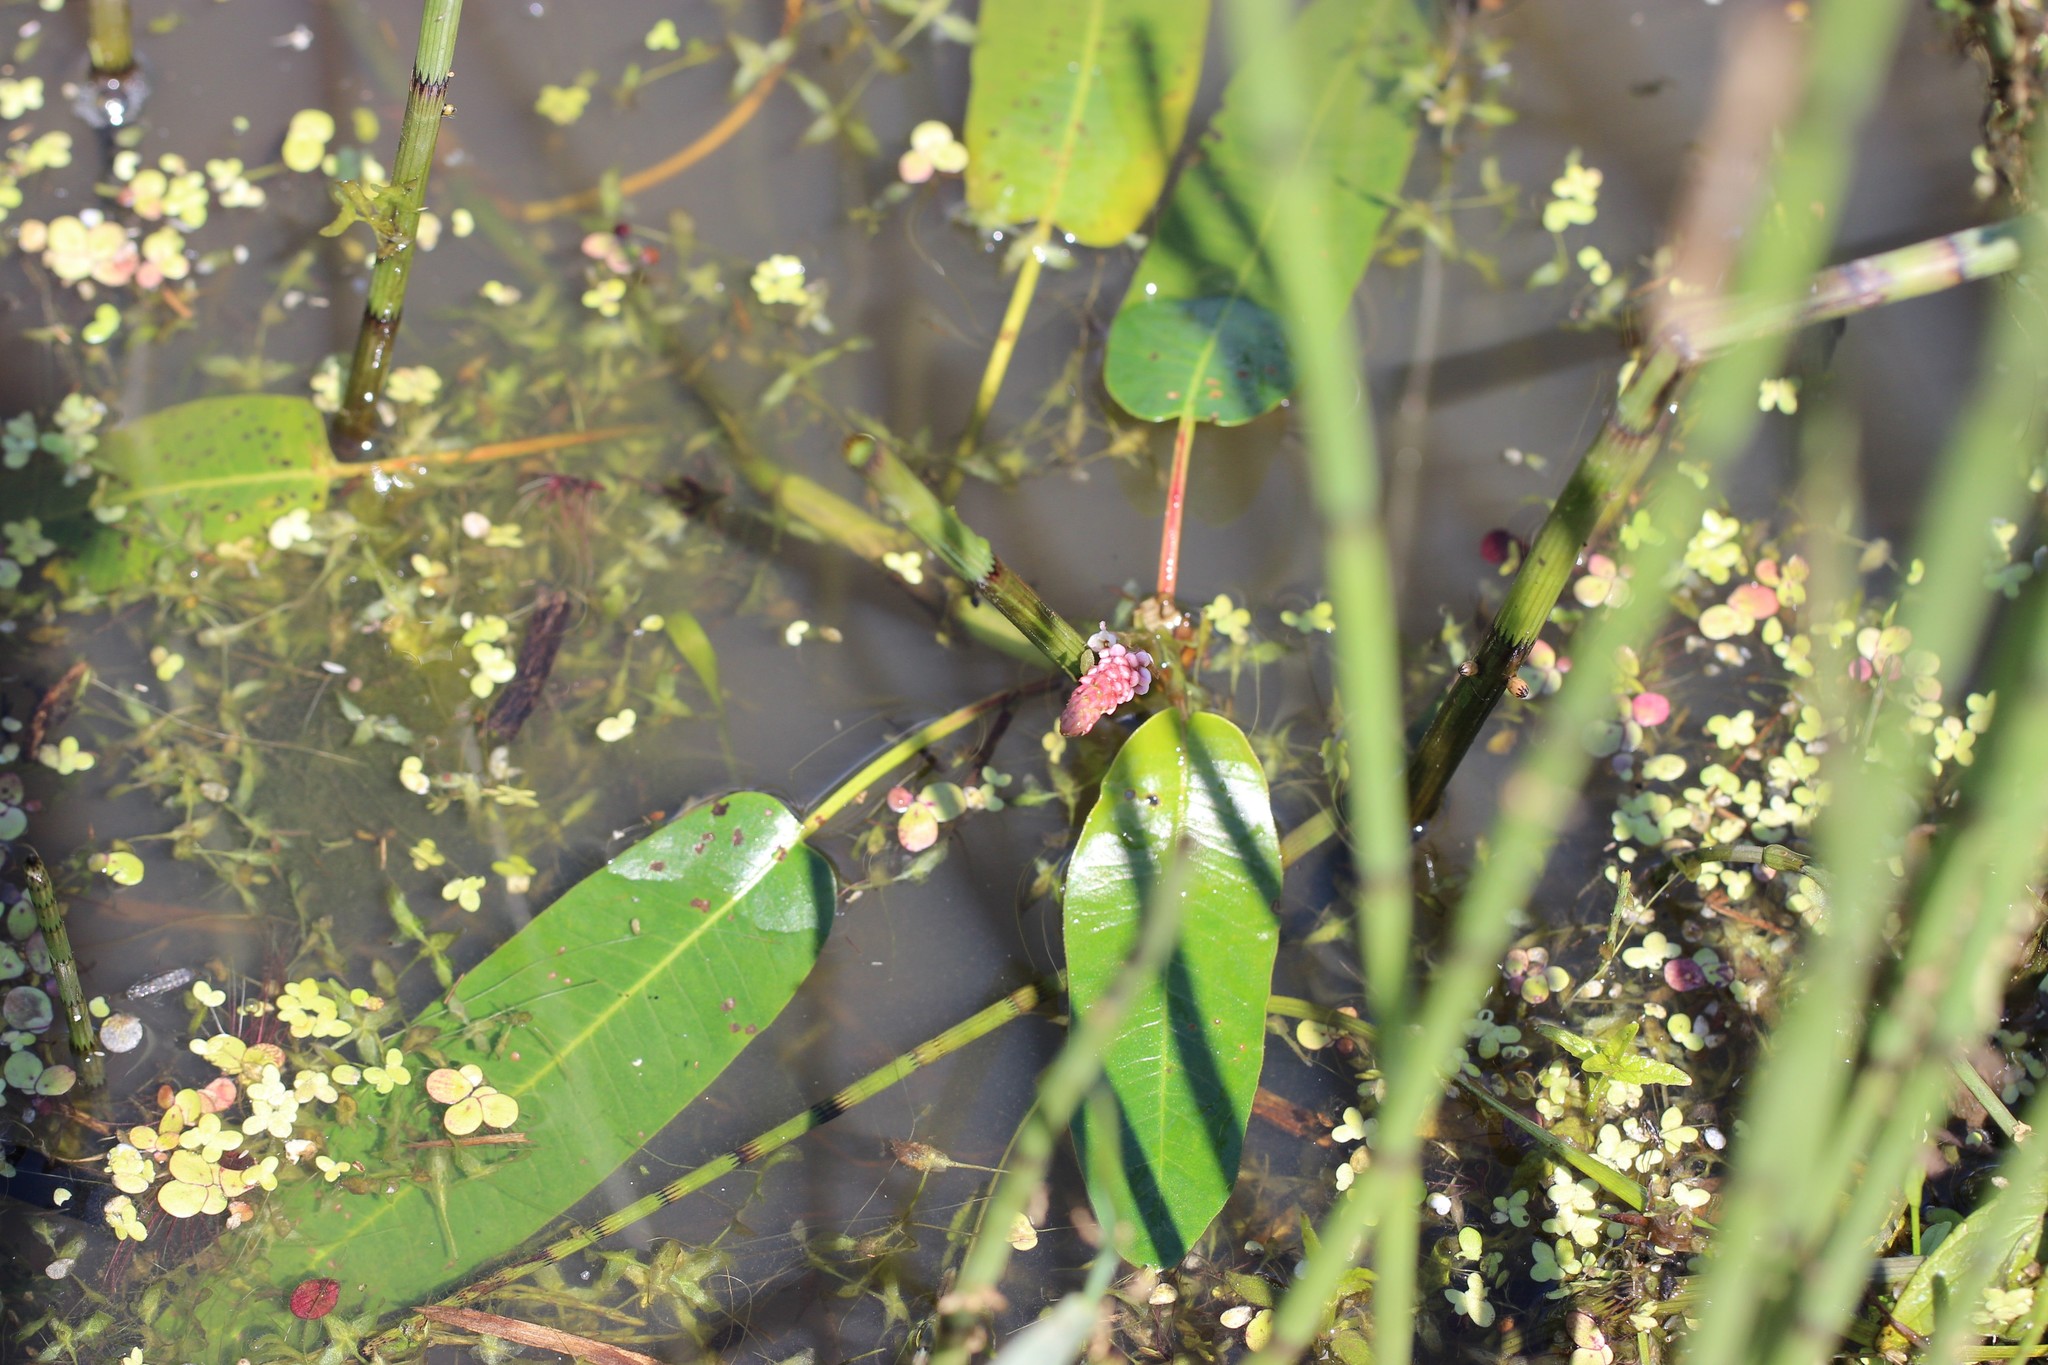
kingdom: Plantae
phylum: Tracheophyta
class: Magnoliopsida
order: Caryophyllales
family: Polygonaceae
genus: Persicaria
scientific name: Persicaria amphibia
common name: Amphibious bistort
